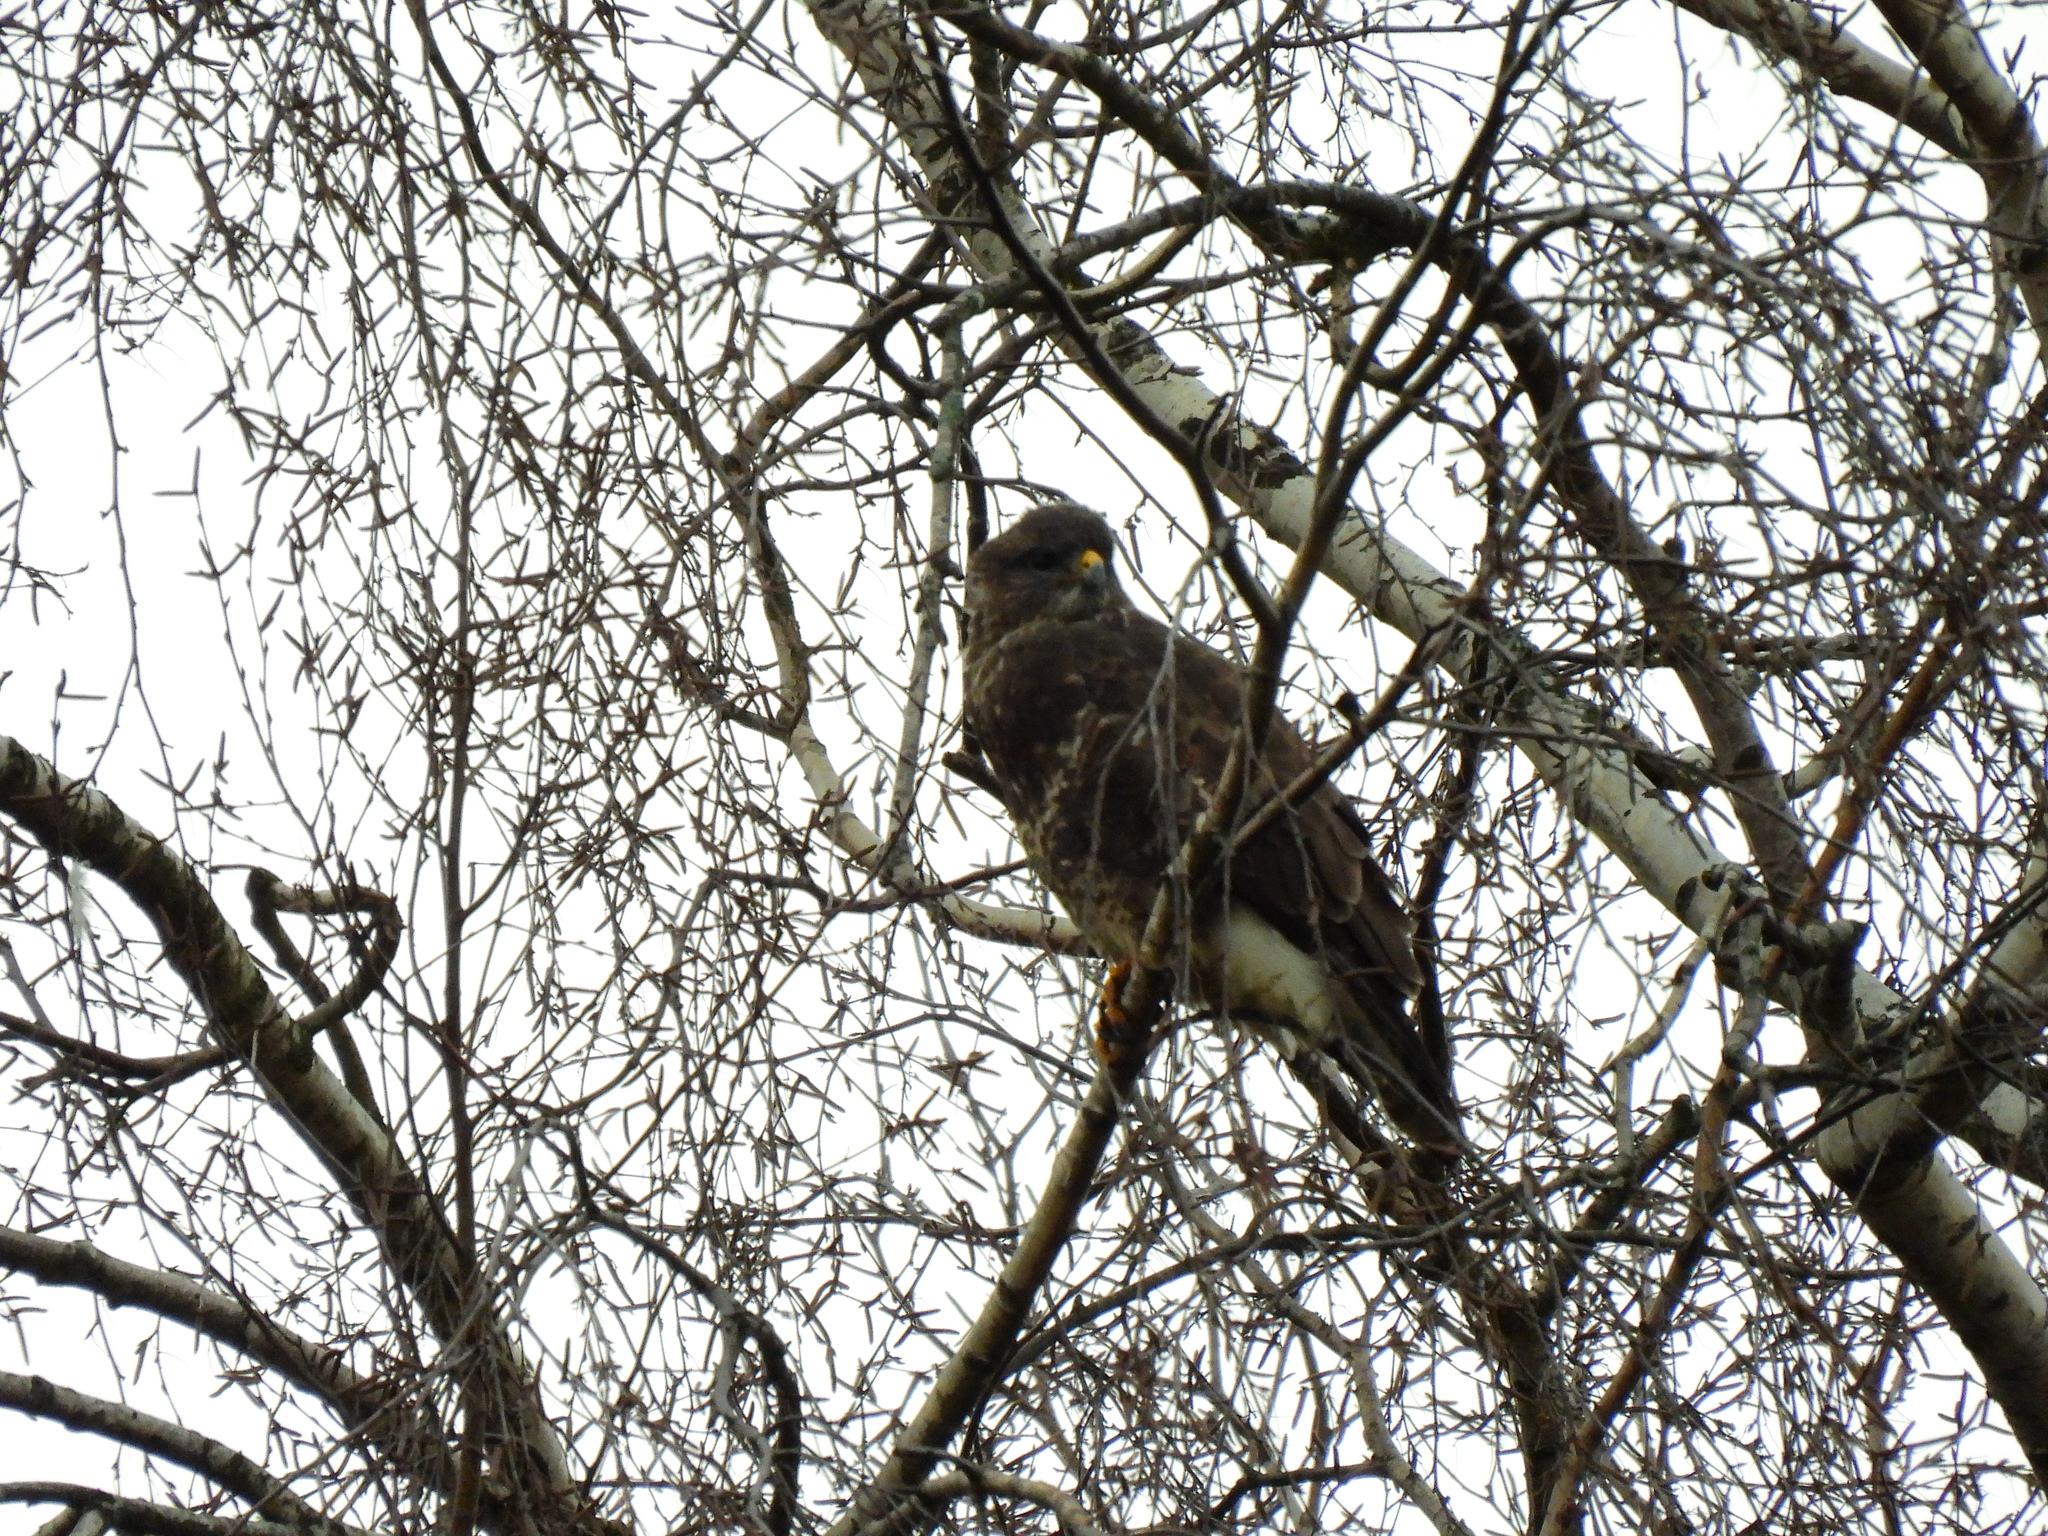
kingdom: Animalia
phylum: Chordata
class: Aves
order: Accipitriformes
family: Accipitridae
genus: Buteo
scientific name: Buteo buteo
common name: Common buzzard
